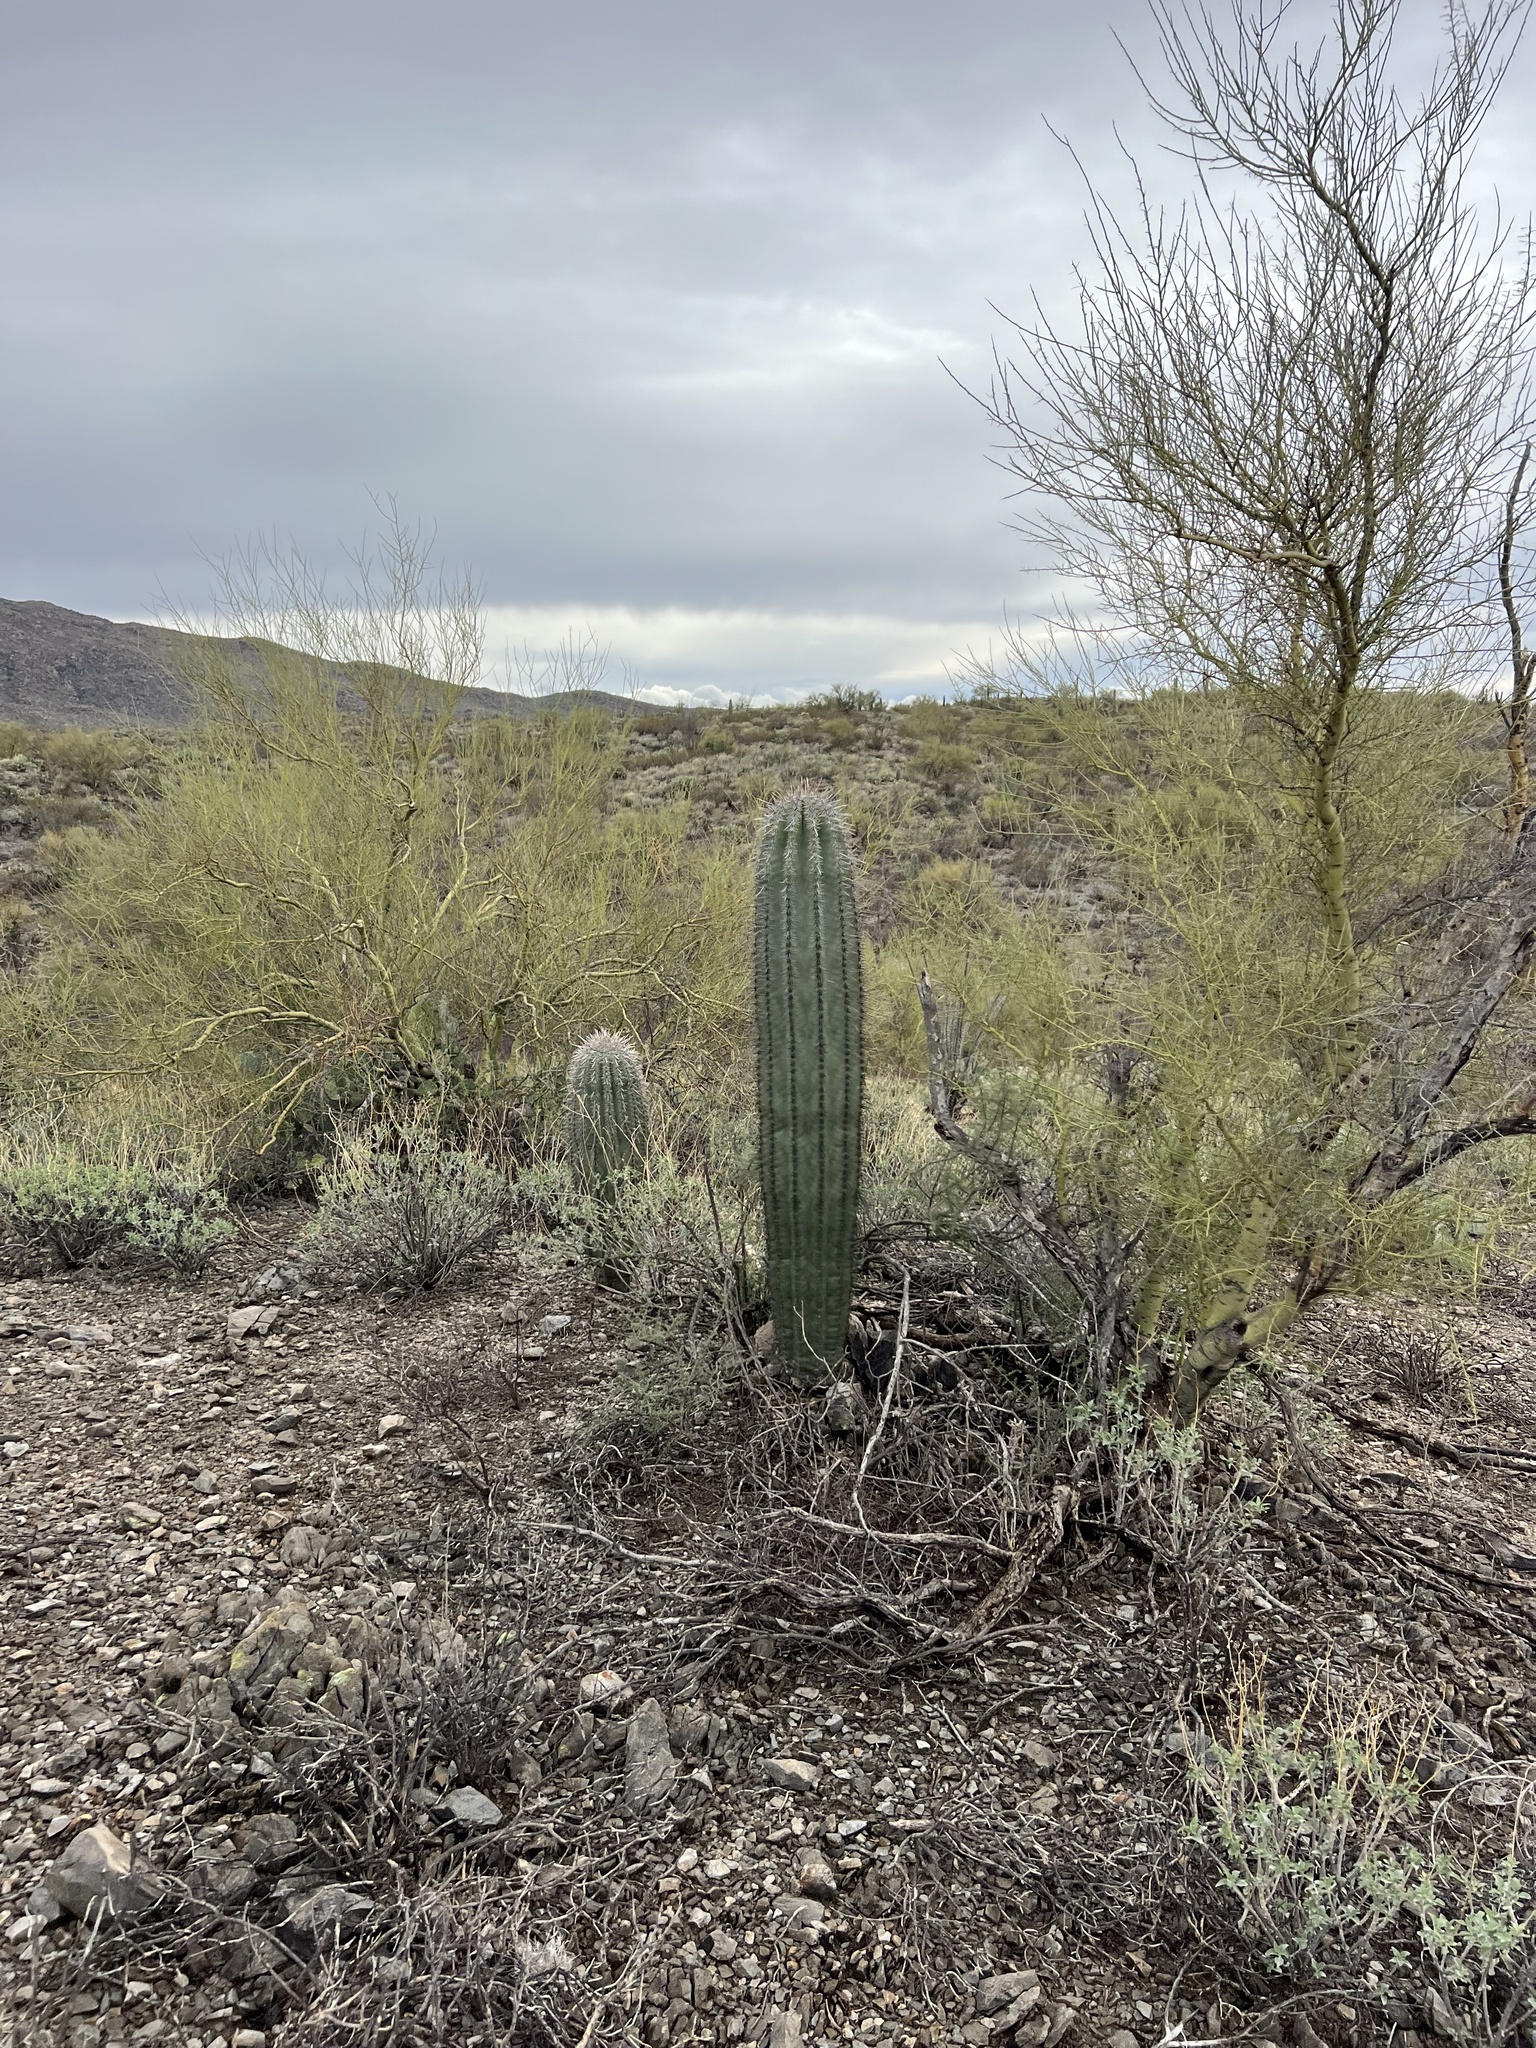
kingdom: Plantae
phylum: Tracheophyta
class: Magnoliopsida
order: Caryophyllales
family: Cactaceae
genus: Carnegiea
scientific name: Carnegiea gigantea
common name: Saguaro
